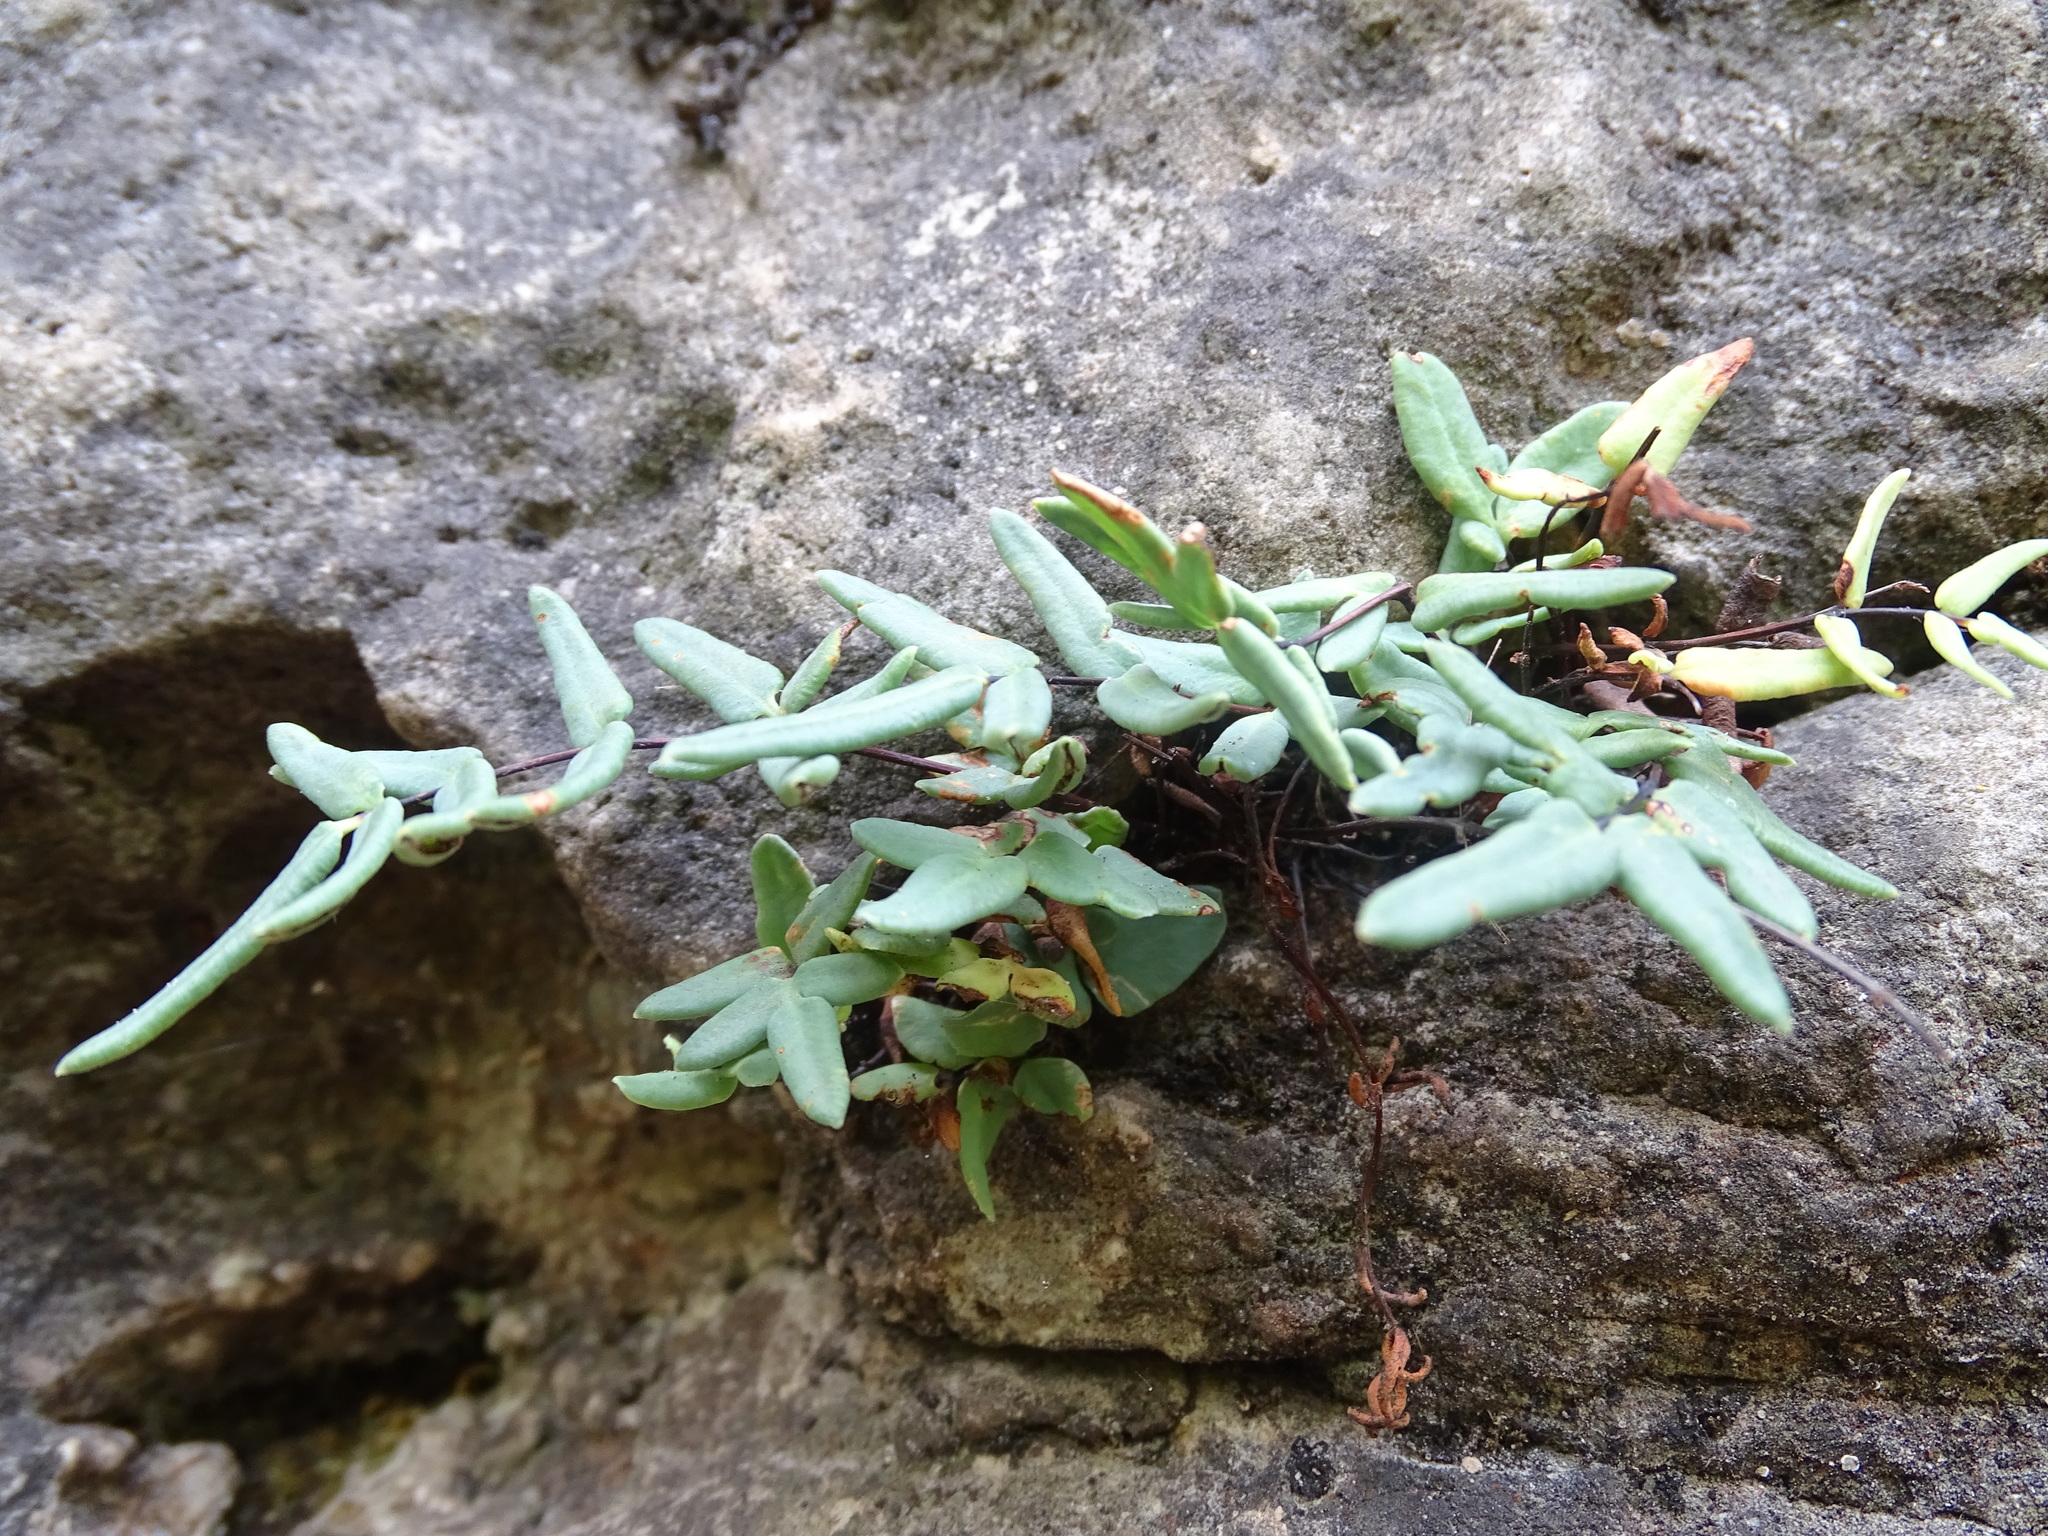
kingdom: Plantae
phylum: Tracheophyta
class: Polypodiopsida
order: Polypodiales
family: Pteridaceae
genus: Pellaea
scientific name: Pellaea glabella
